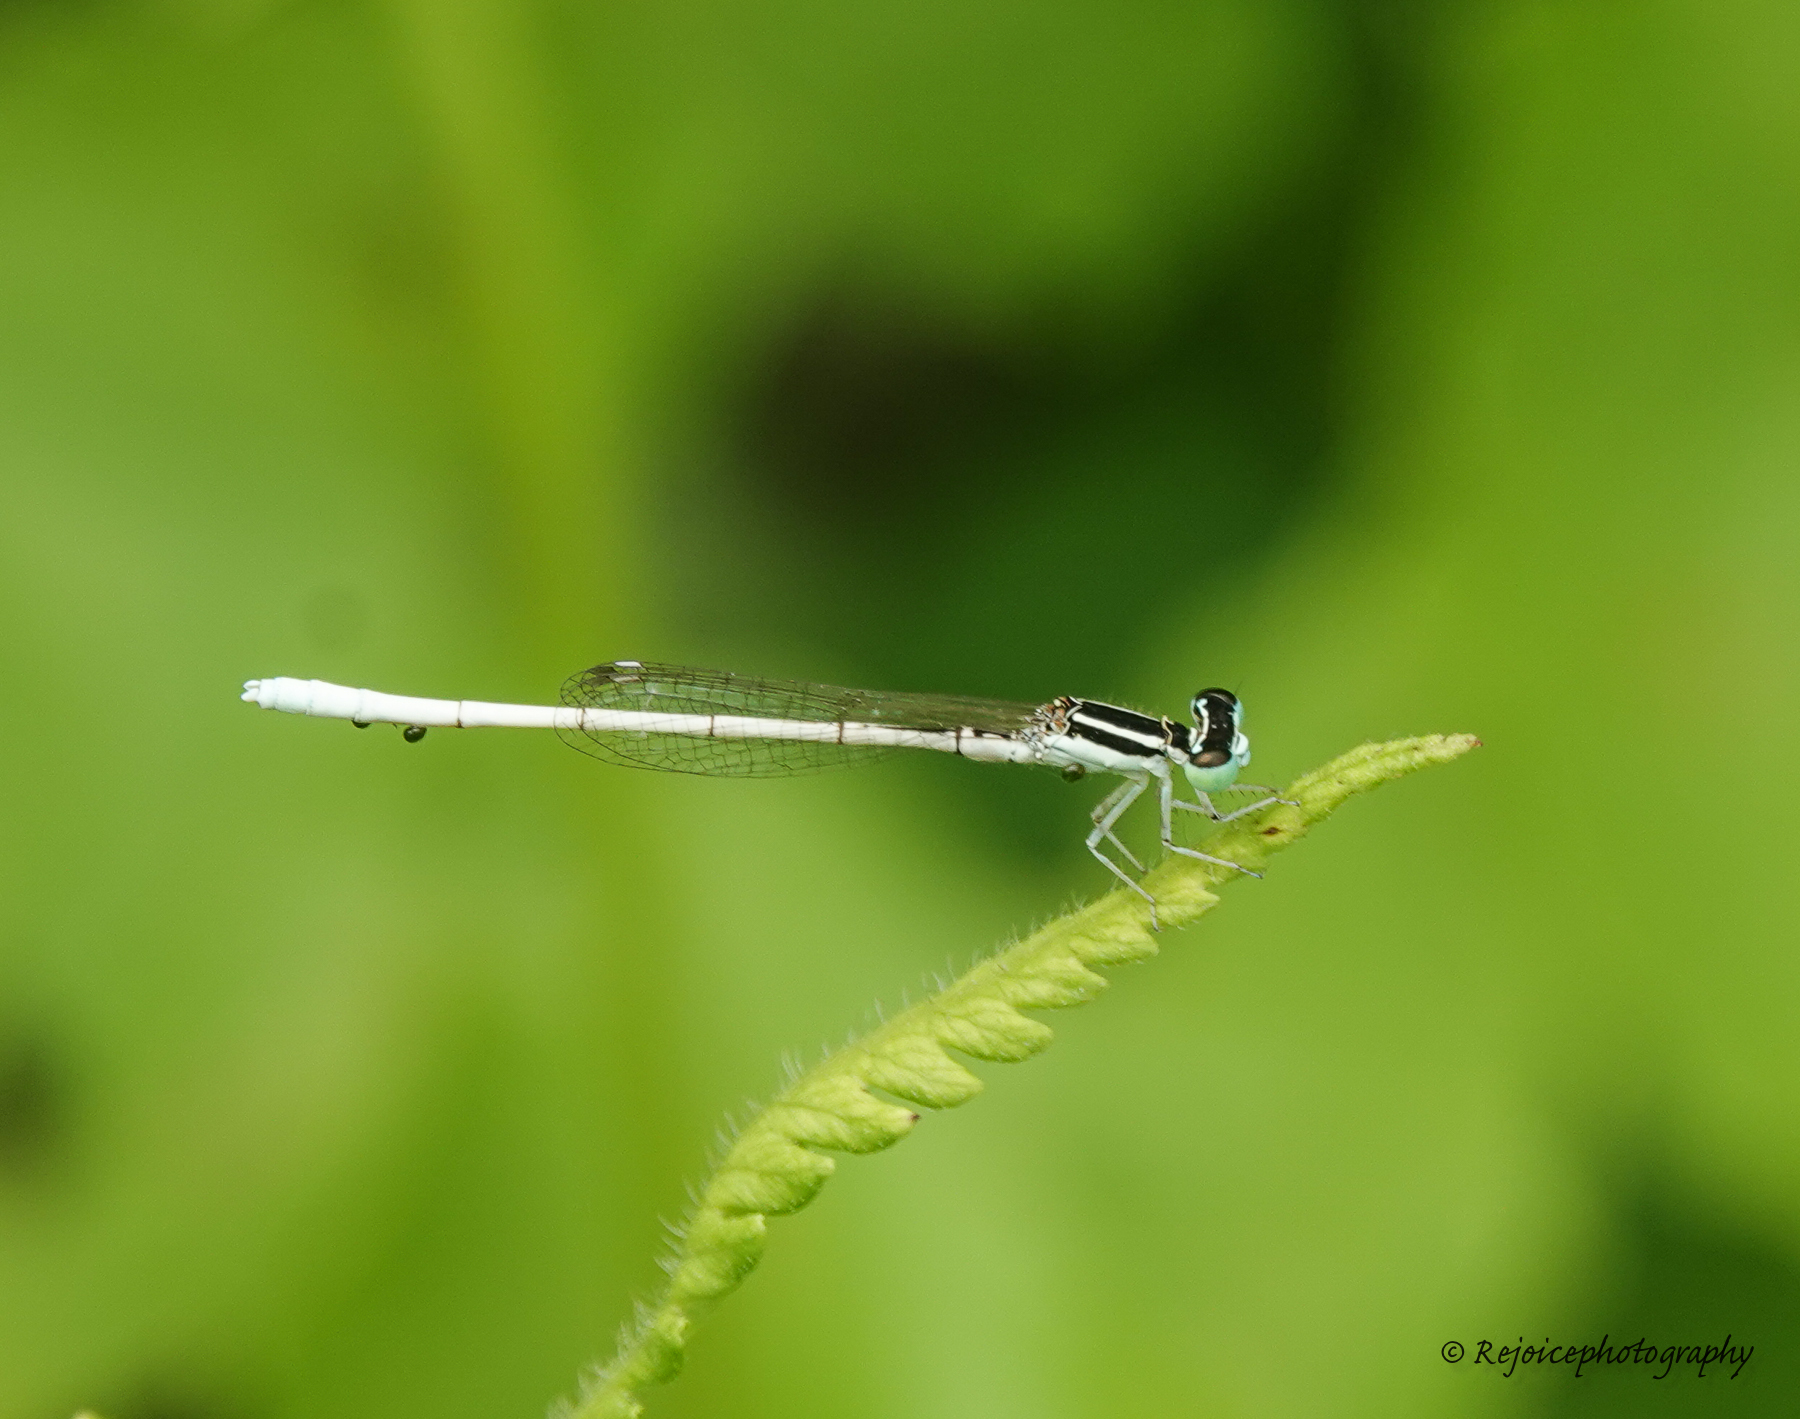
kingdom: Animalia
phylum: Arthropoda
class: Insecta
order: Odonata
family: Coenagrionidae
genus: Agriocnemis
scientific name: Agriocnemis lacteola
